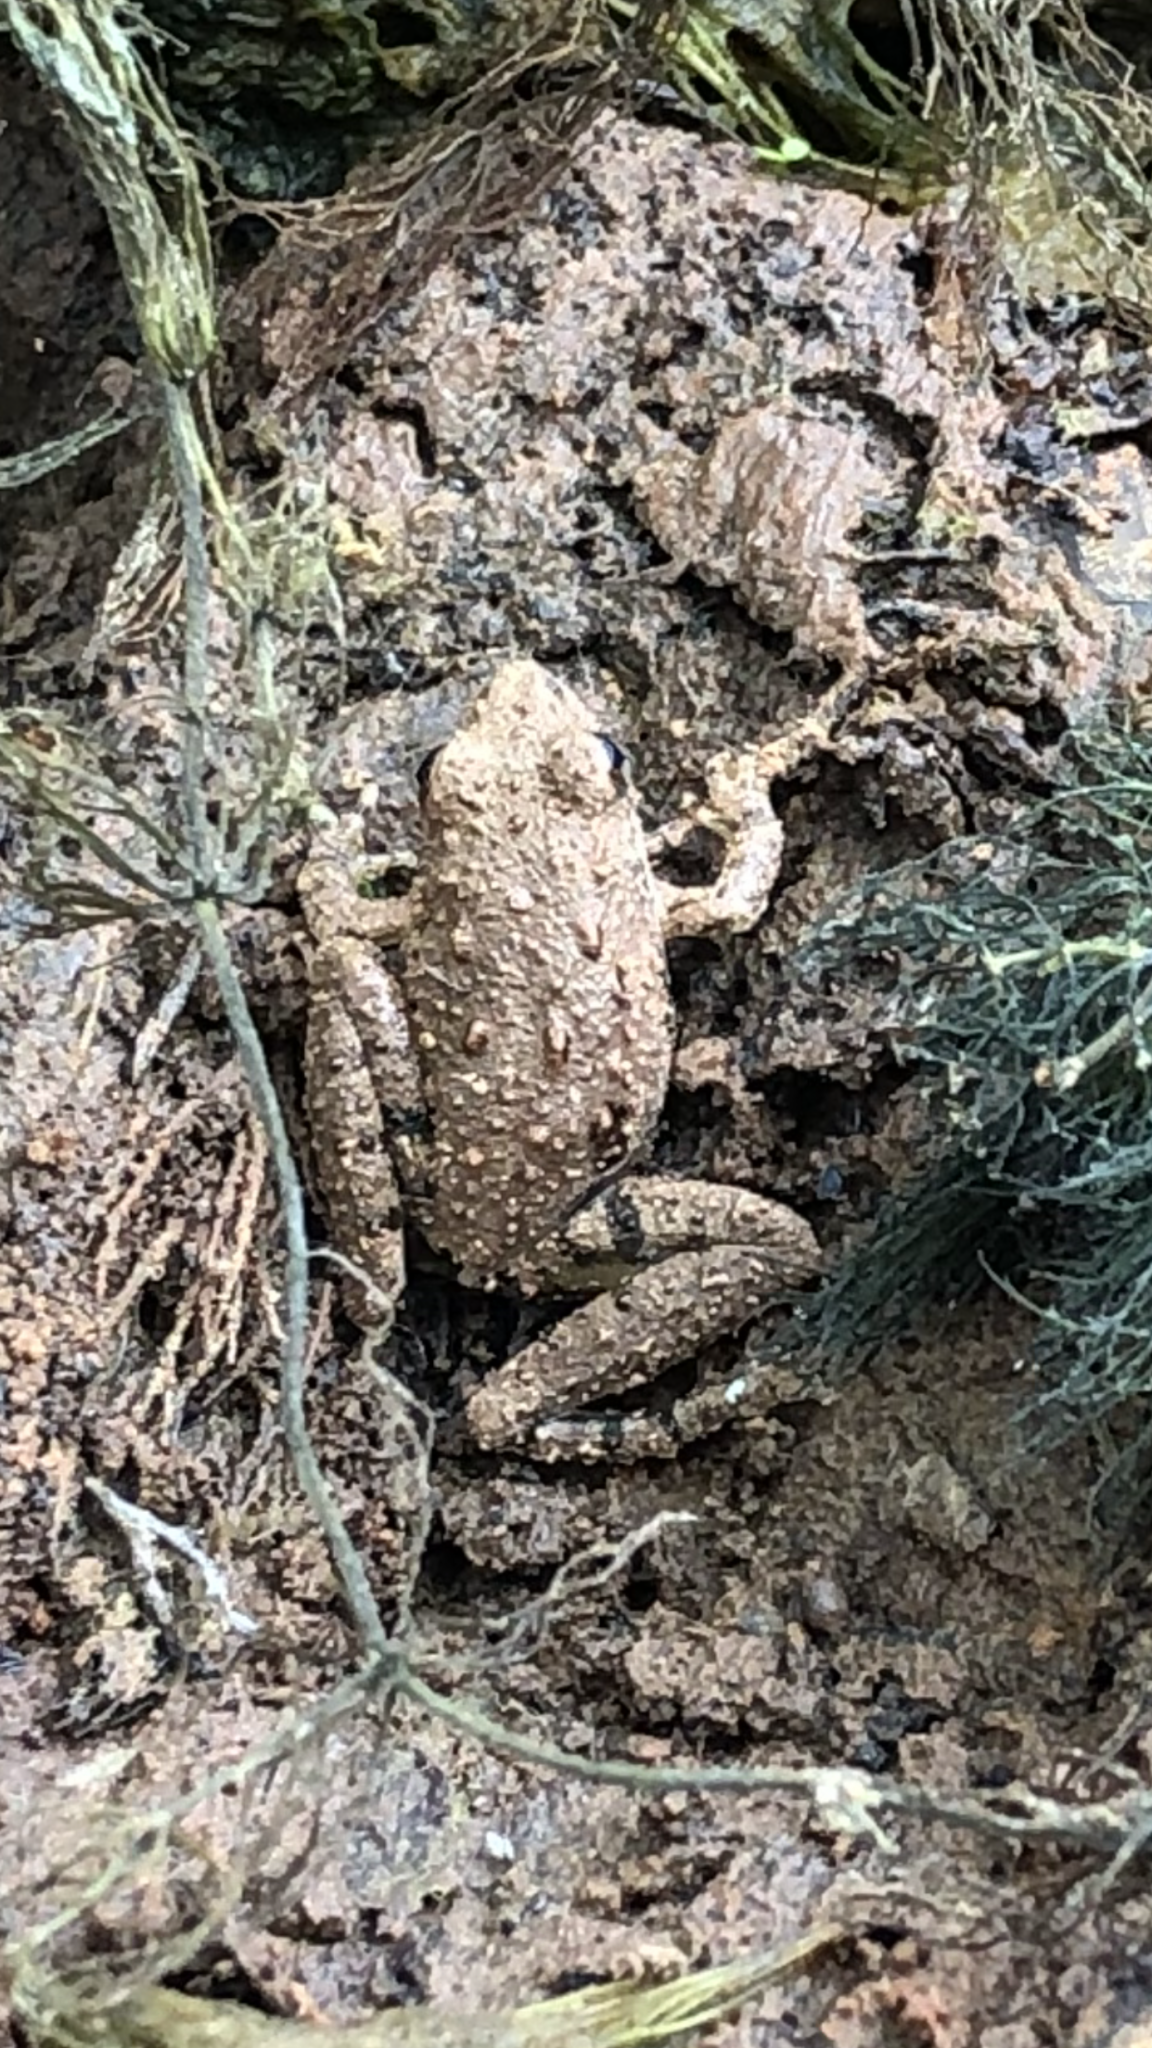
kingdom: Animalia
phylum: Chordata
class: Amphibia
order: Anura
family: Hylidae
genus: Acris
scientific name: Acris blanchardi
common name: Blanchard's cricket frog
